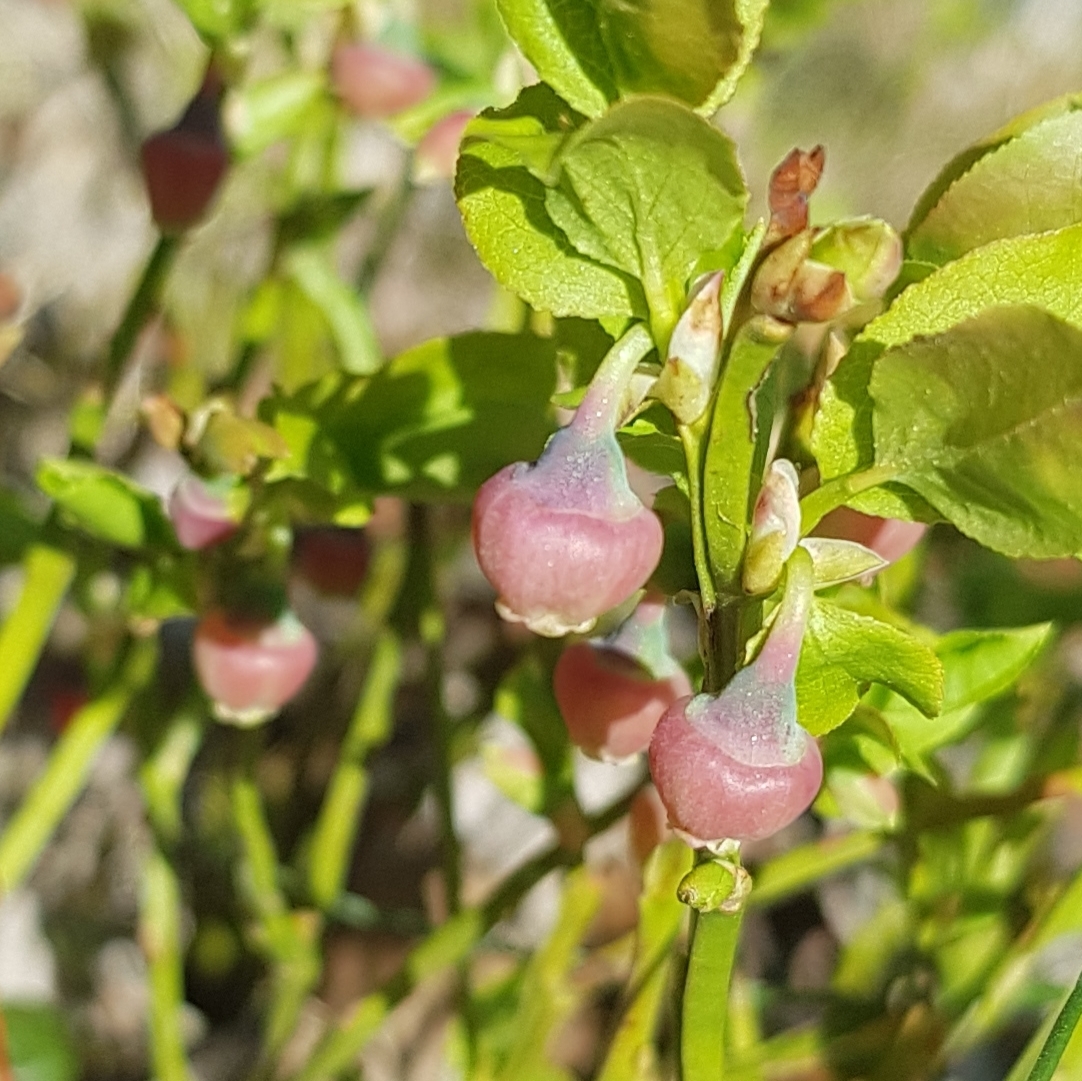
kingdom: Plantae
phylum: Tracheophyta
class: Magnoliopsida
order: Ericales
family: Ericaceae
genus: Vaccinium
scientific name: Vaccinium myrtillus
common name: Bilberry
